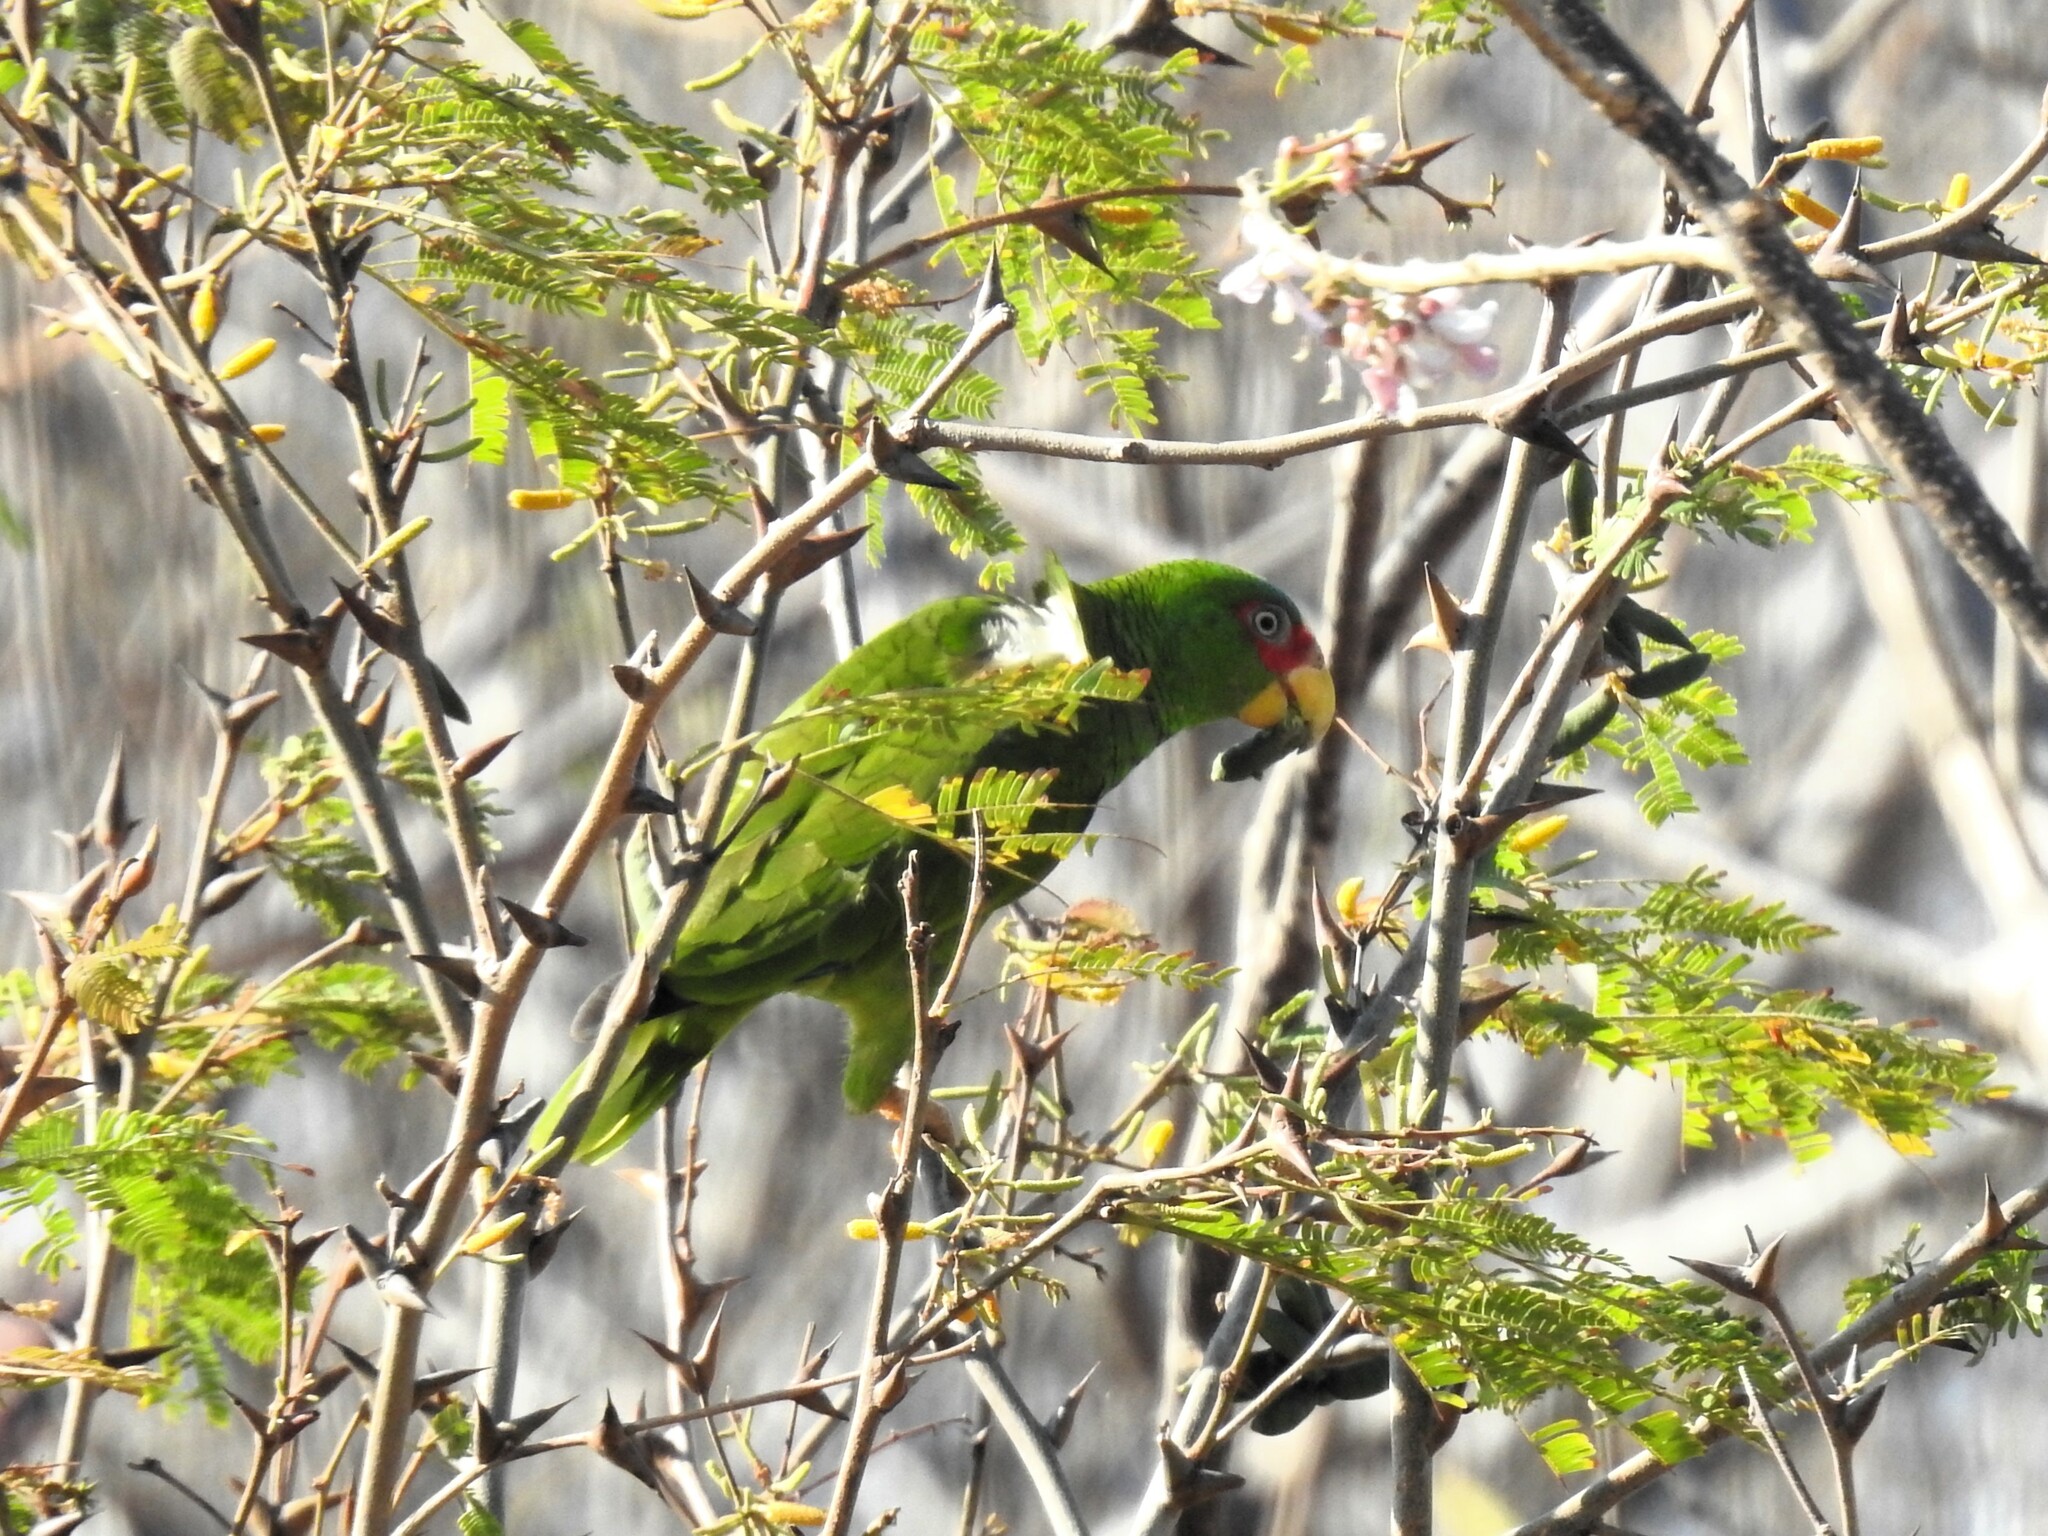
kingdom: Animalia
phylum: Chordata
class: Aves
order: Psittaciformes
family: Psittacidae
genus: Amazona
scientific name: Amazona albifrons
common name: White-fronted amazon
